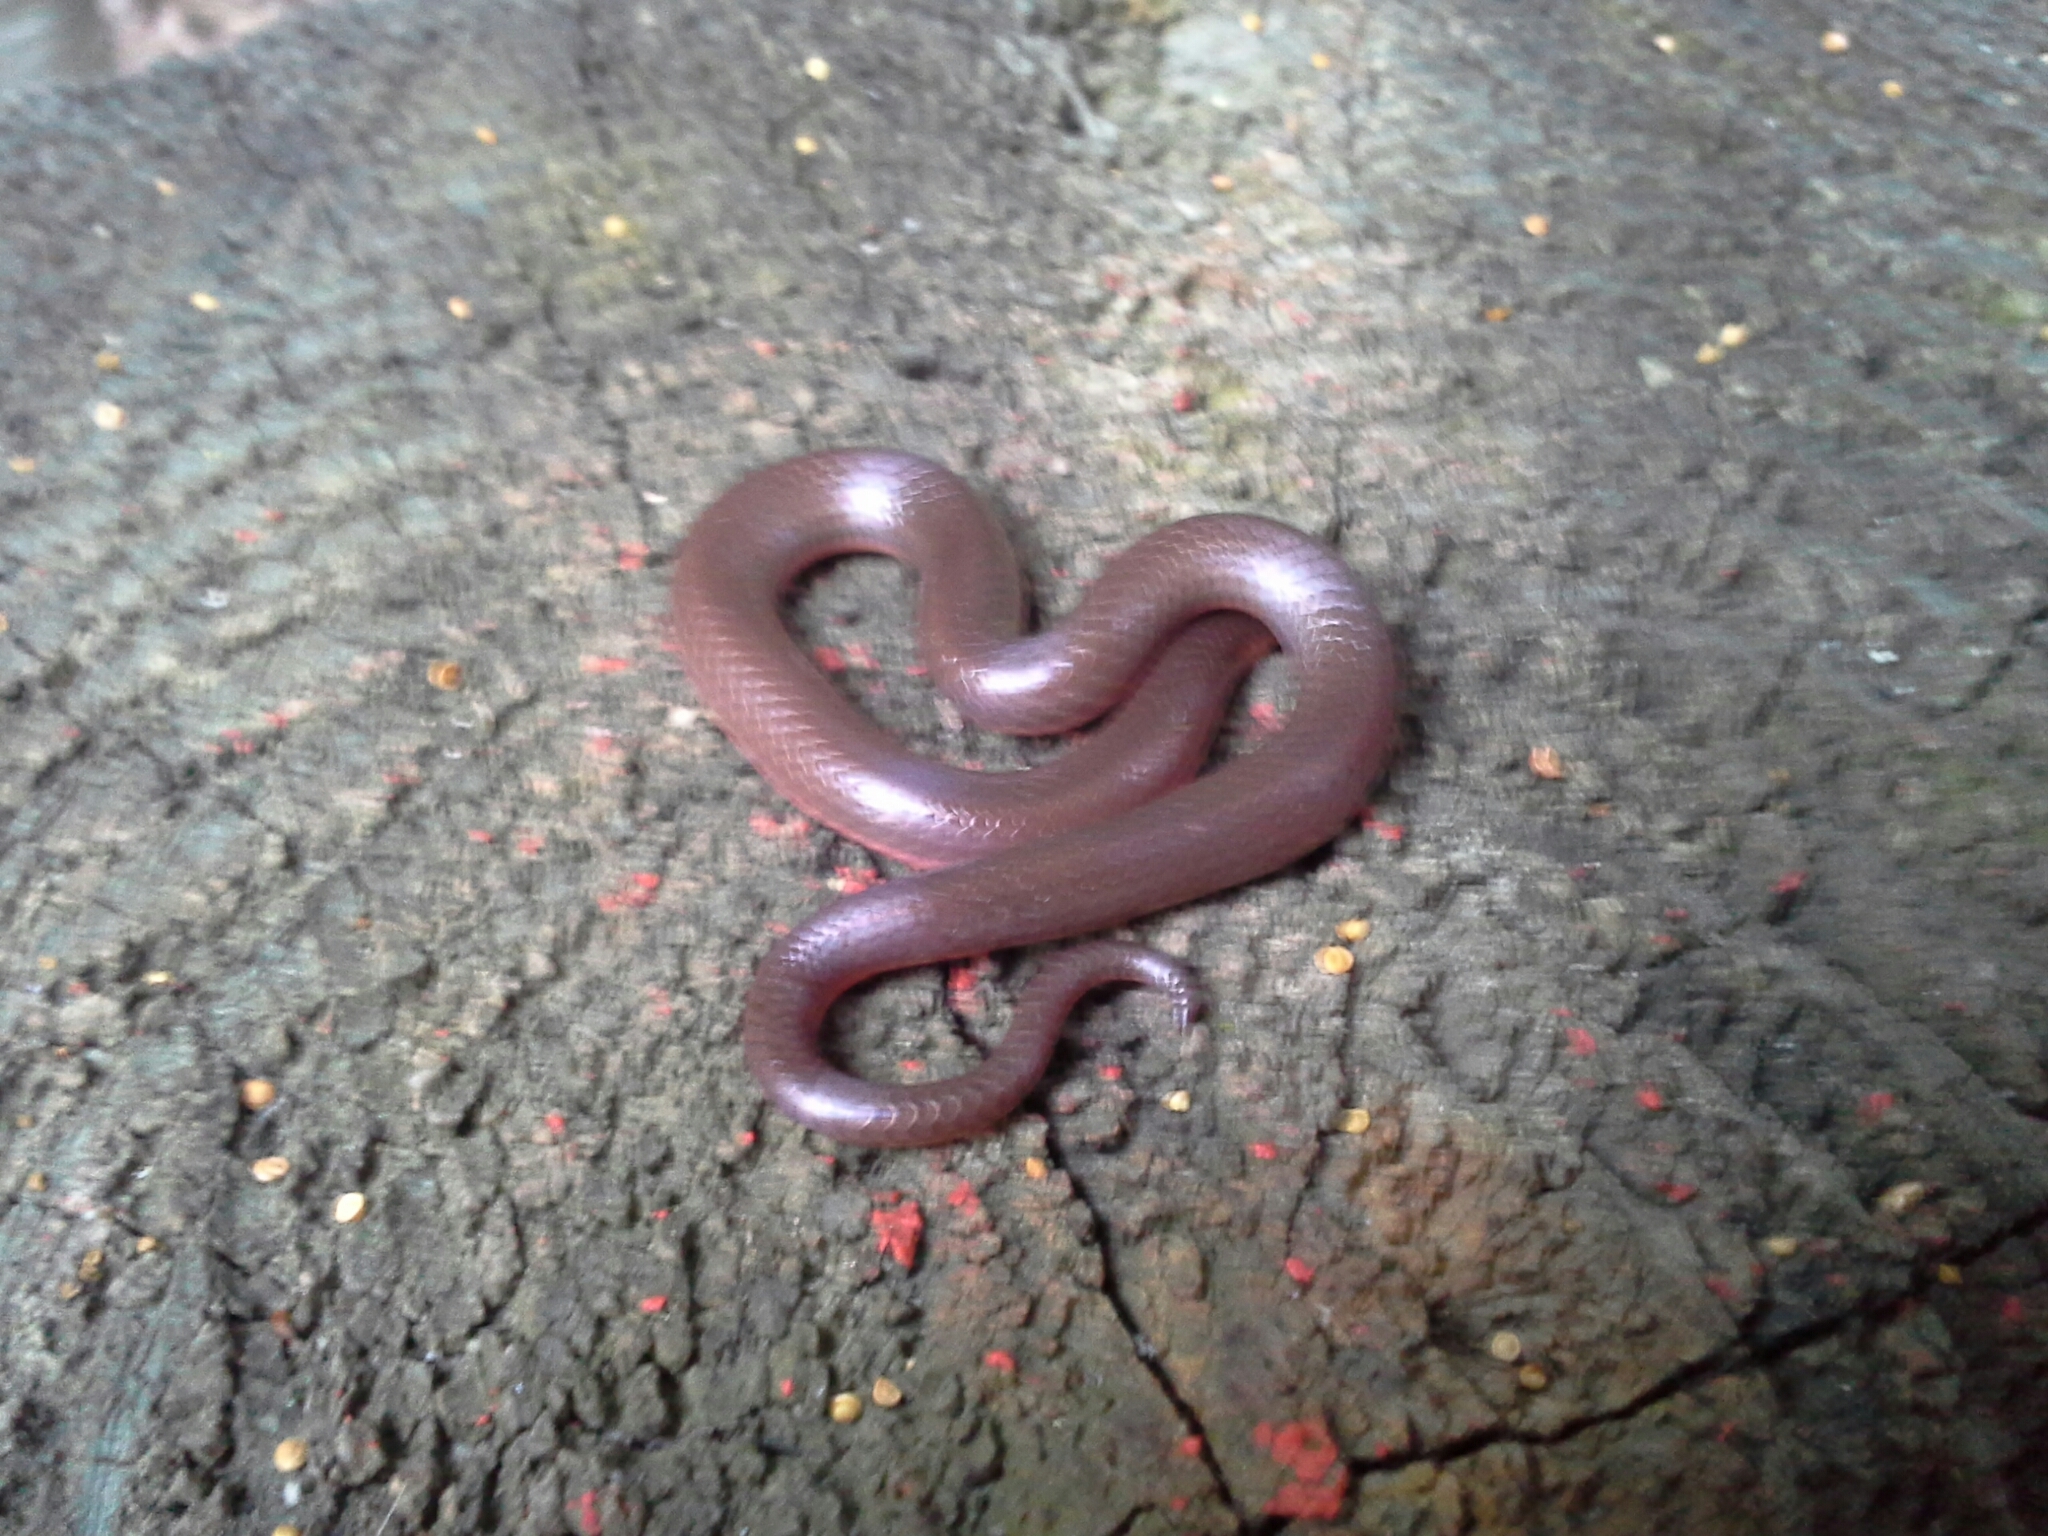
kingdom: Animalia
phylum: Chordata
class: Squamata
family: Colubridae
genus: Carphophis
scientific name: Carphophis amoenus
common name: Eastern worm snake
